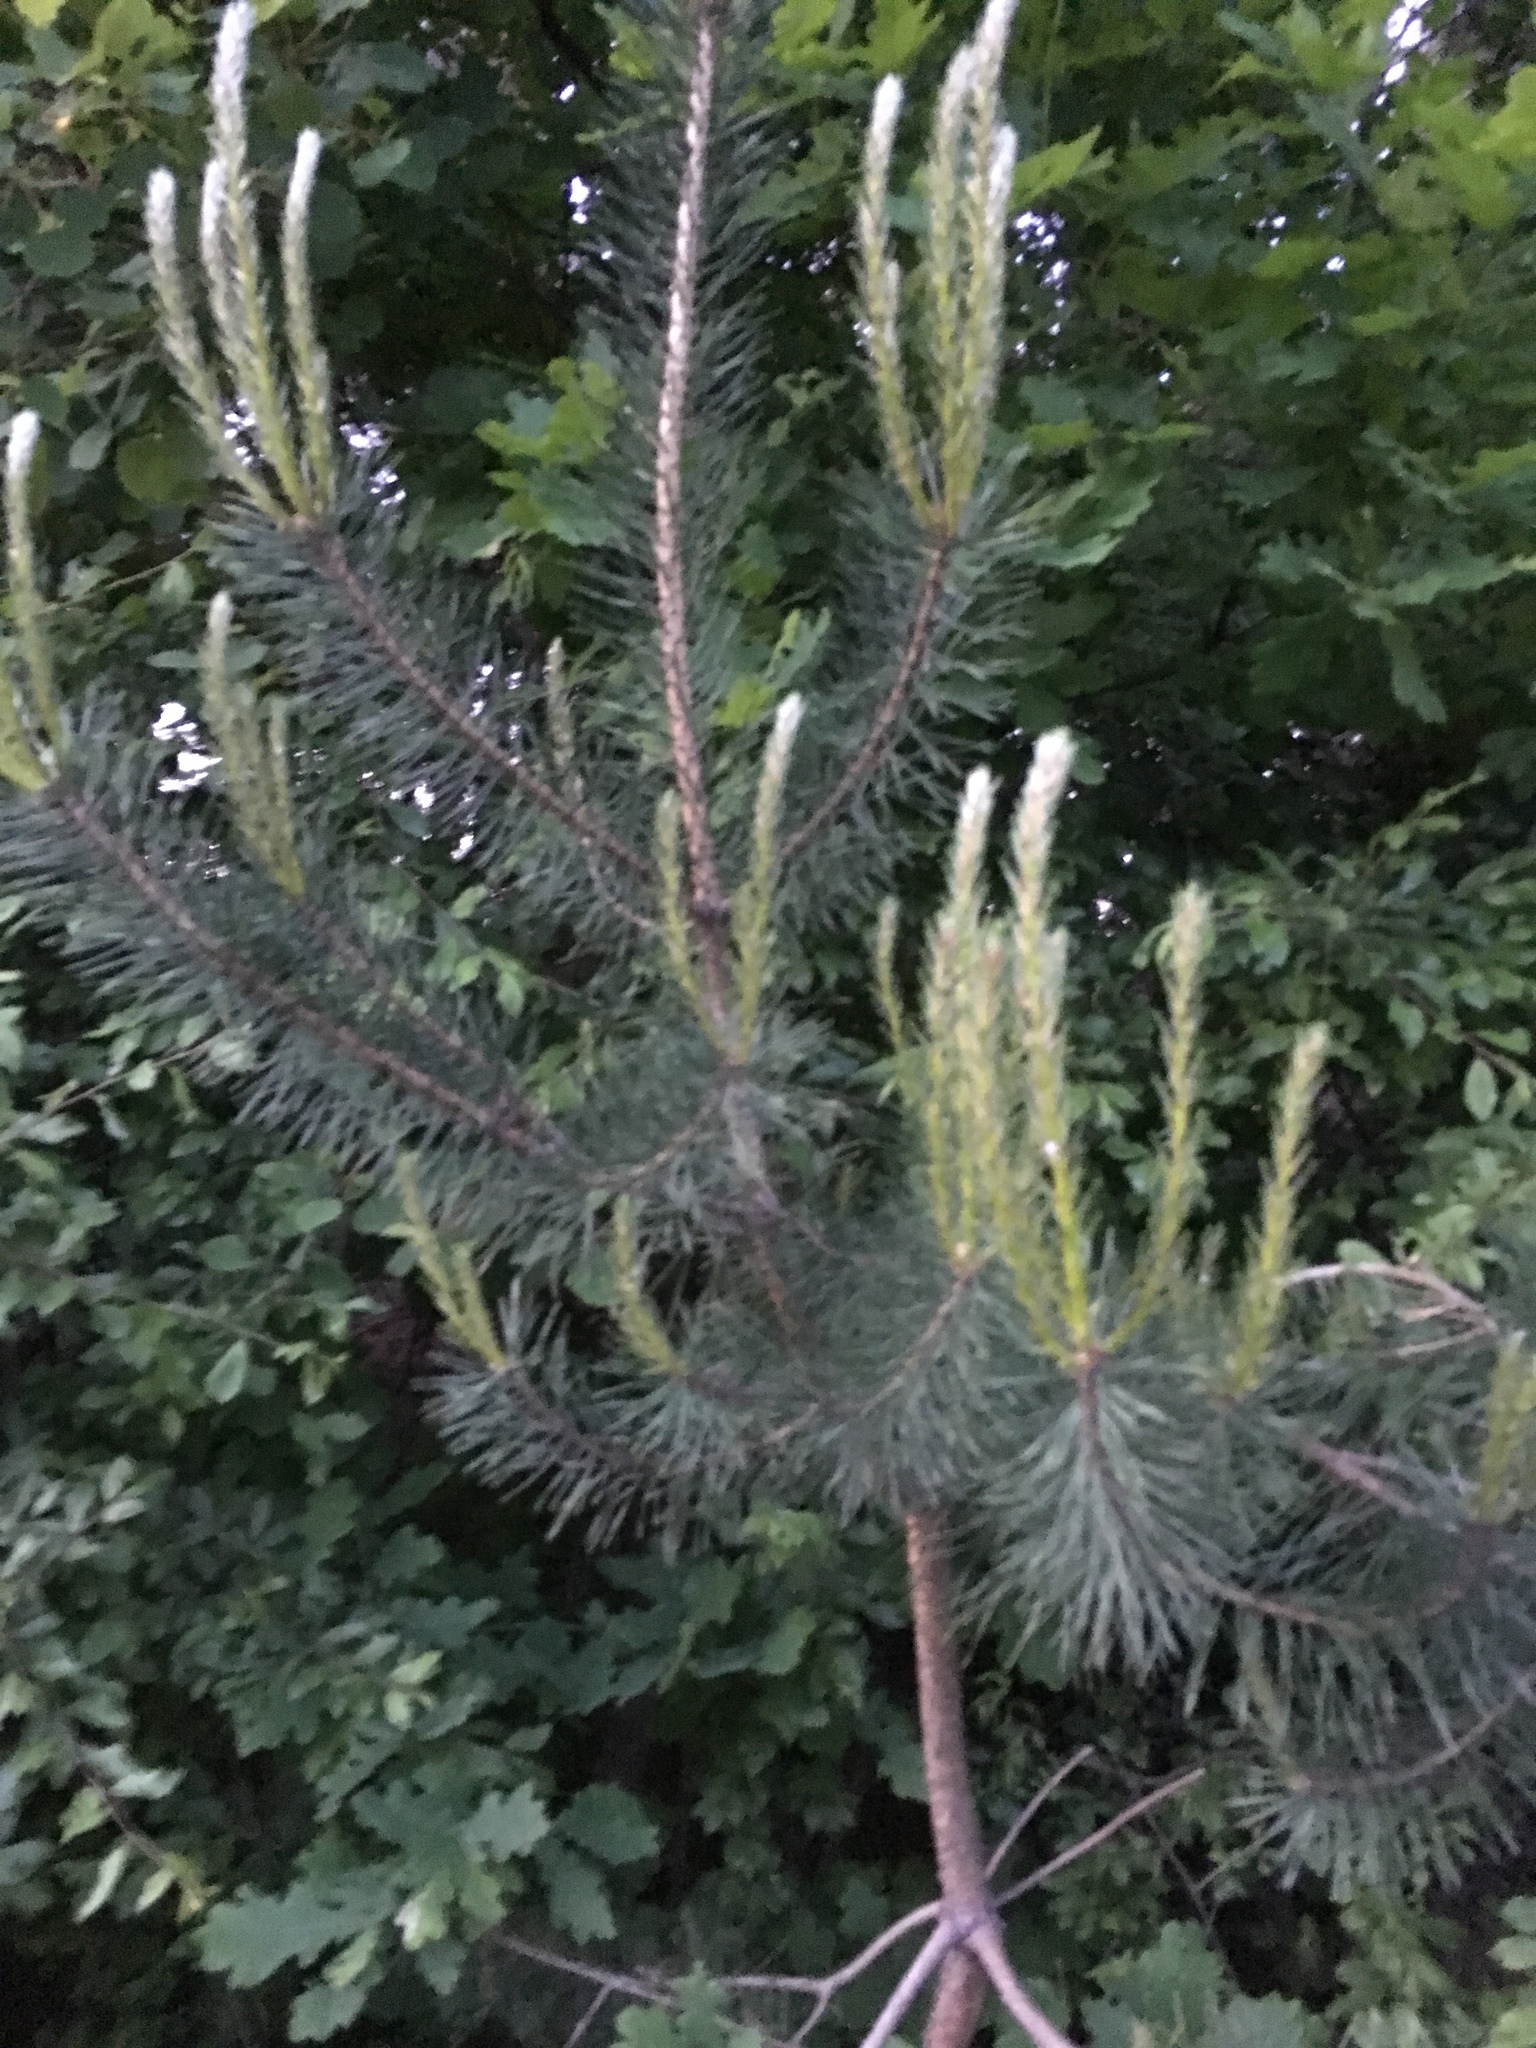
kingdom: Plantae
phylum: Tracheophyta
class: Pinopsida
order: Pinales
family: Pinaceae
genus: Pinus
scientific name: Pinus sylvestris
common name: Scots pine
